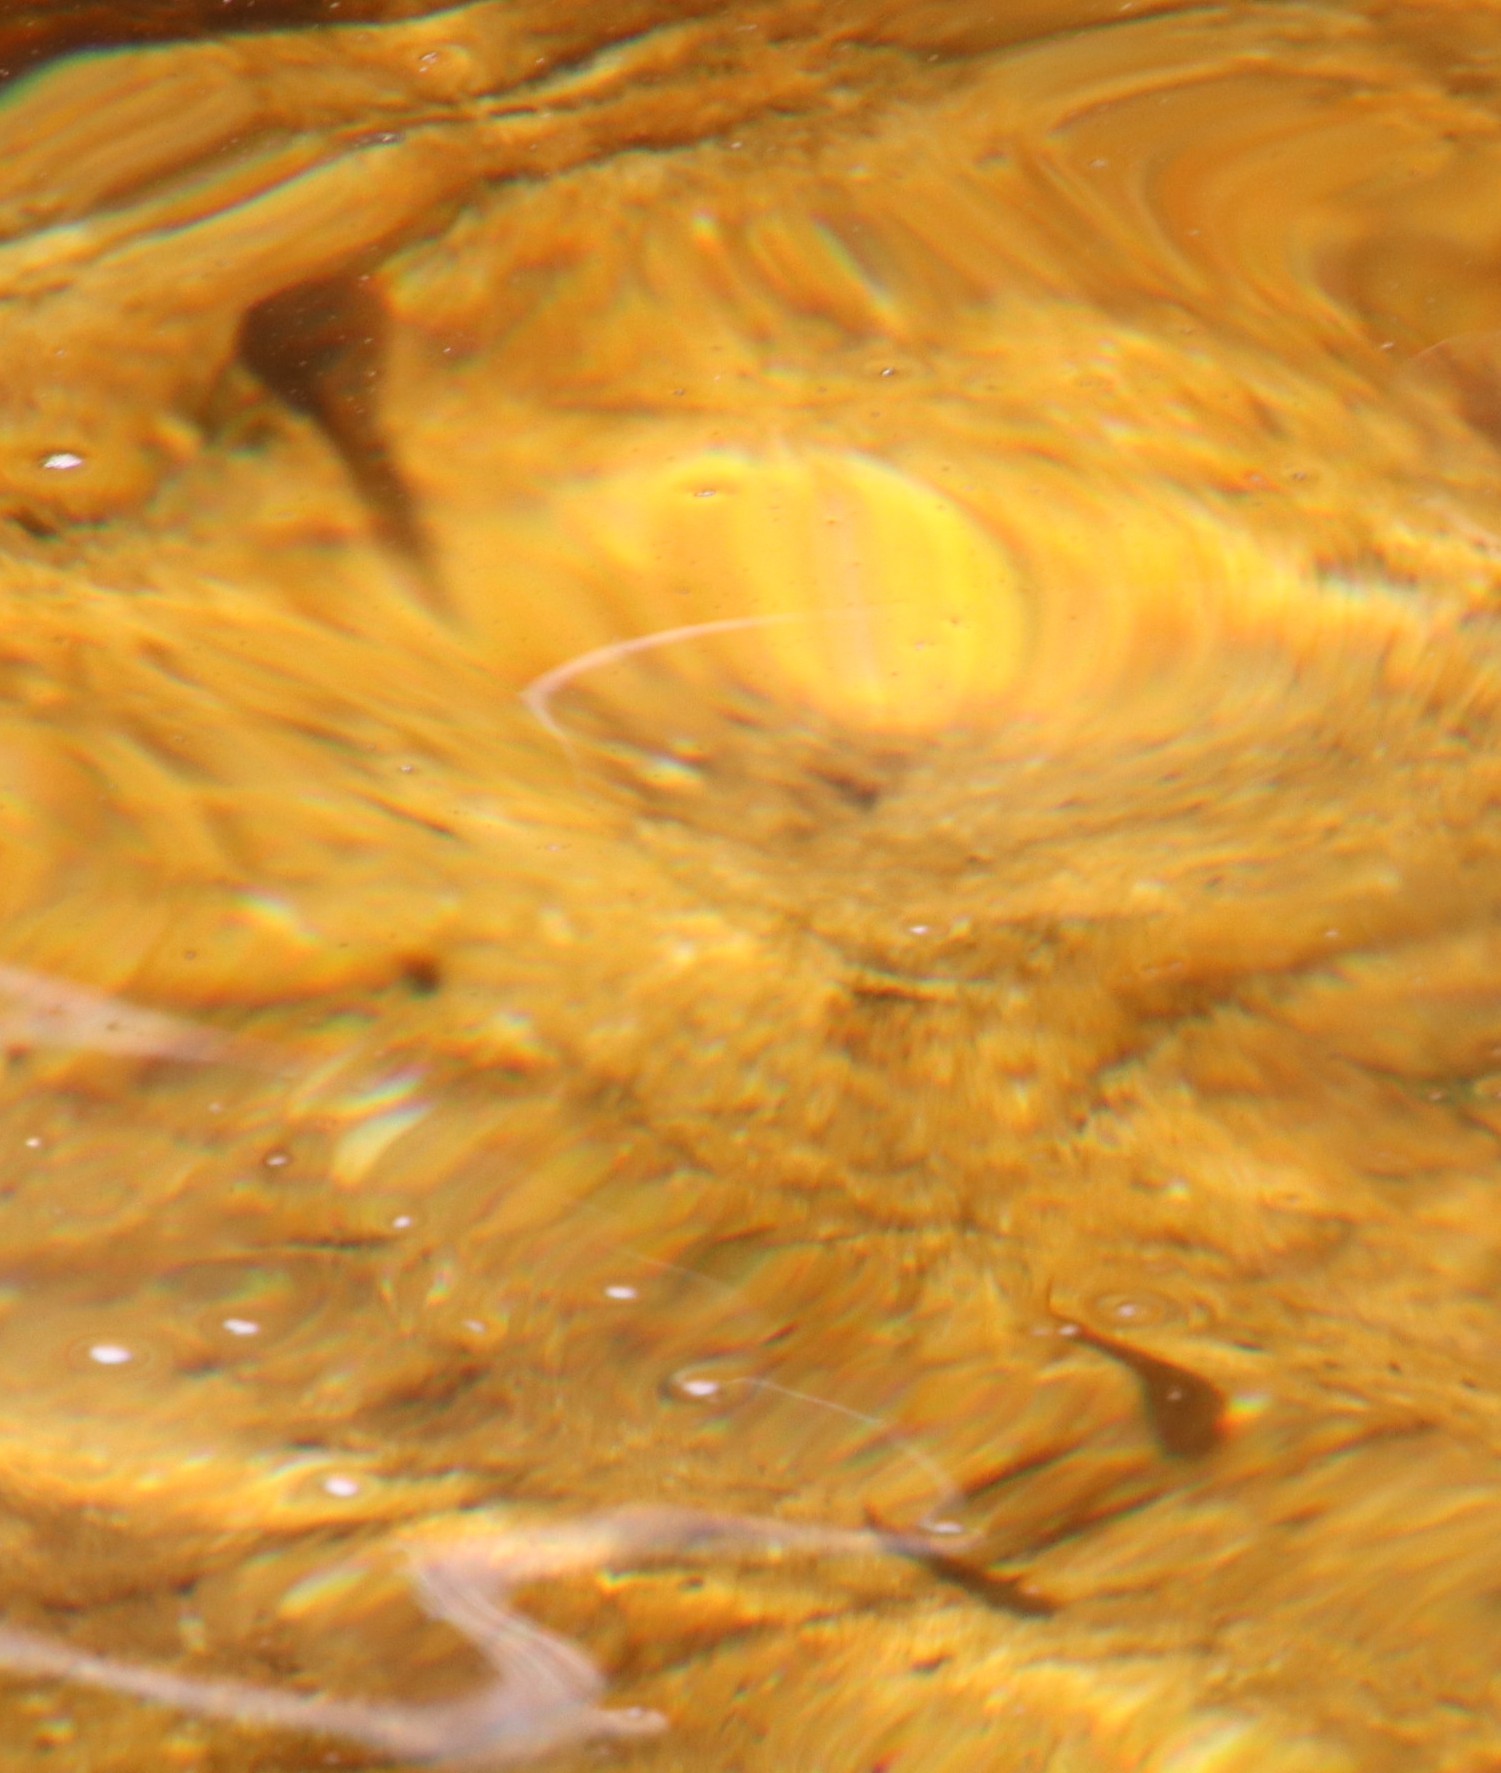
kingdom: Animalia
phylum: Chordata
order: Cypriniformes
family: Cyprinidae
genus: Pseudobarbus
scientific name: Pseudobarbus burchelli
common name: Burchell's redfin
